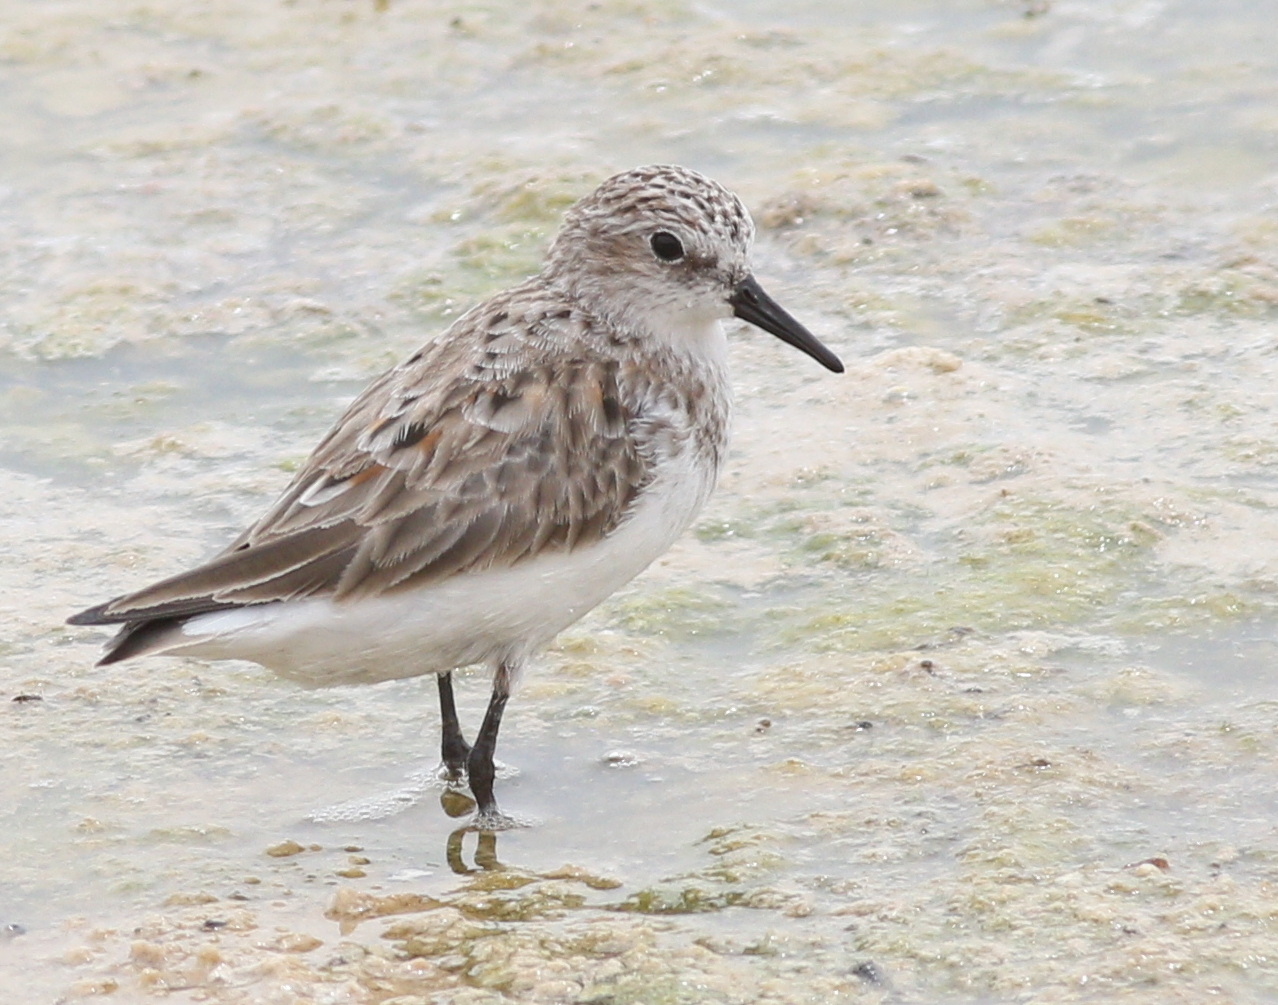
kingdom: Animalia
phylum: Chordata
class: Aves
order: Charadriiformes
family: Scolopacidae
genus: Calidris
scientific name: Calidris minuta
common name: Little stint
